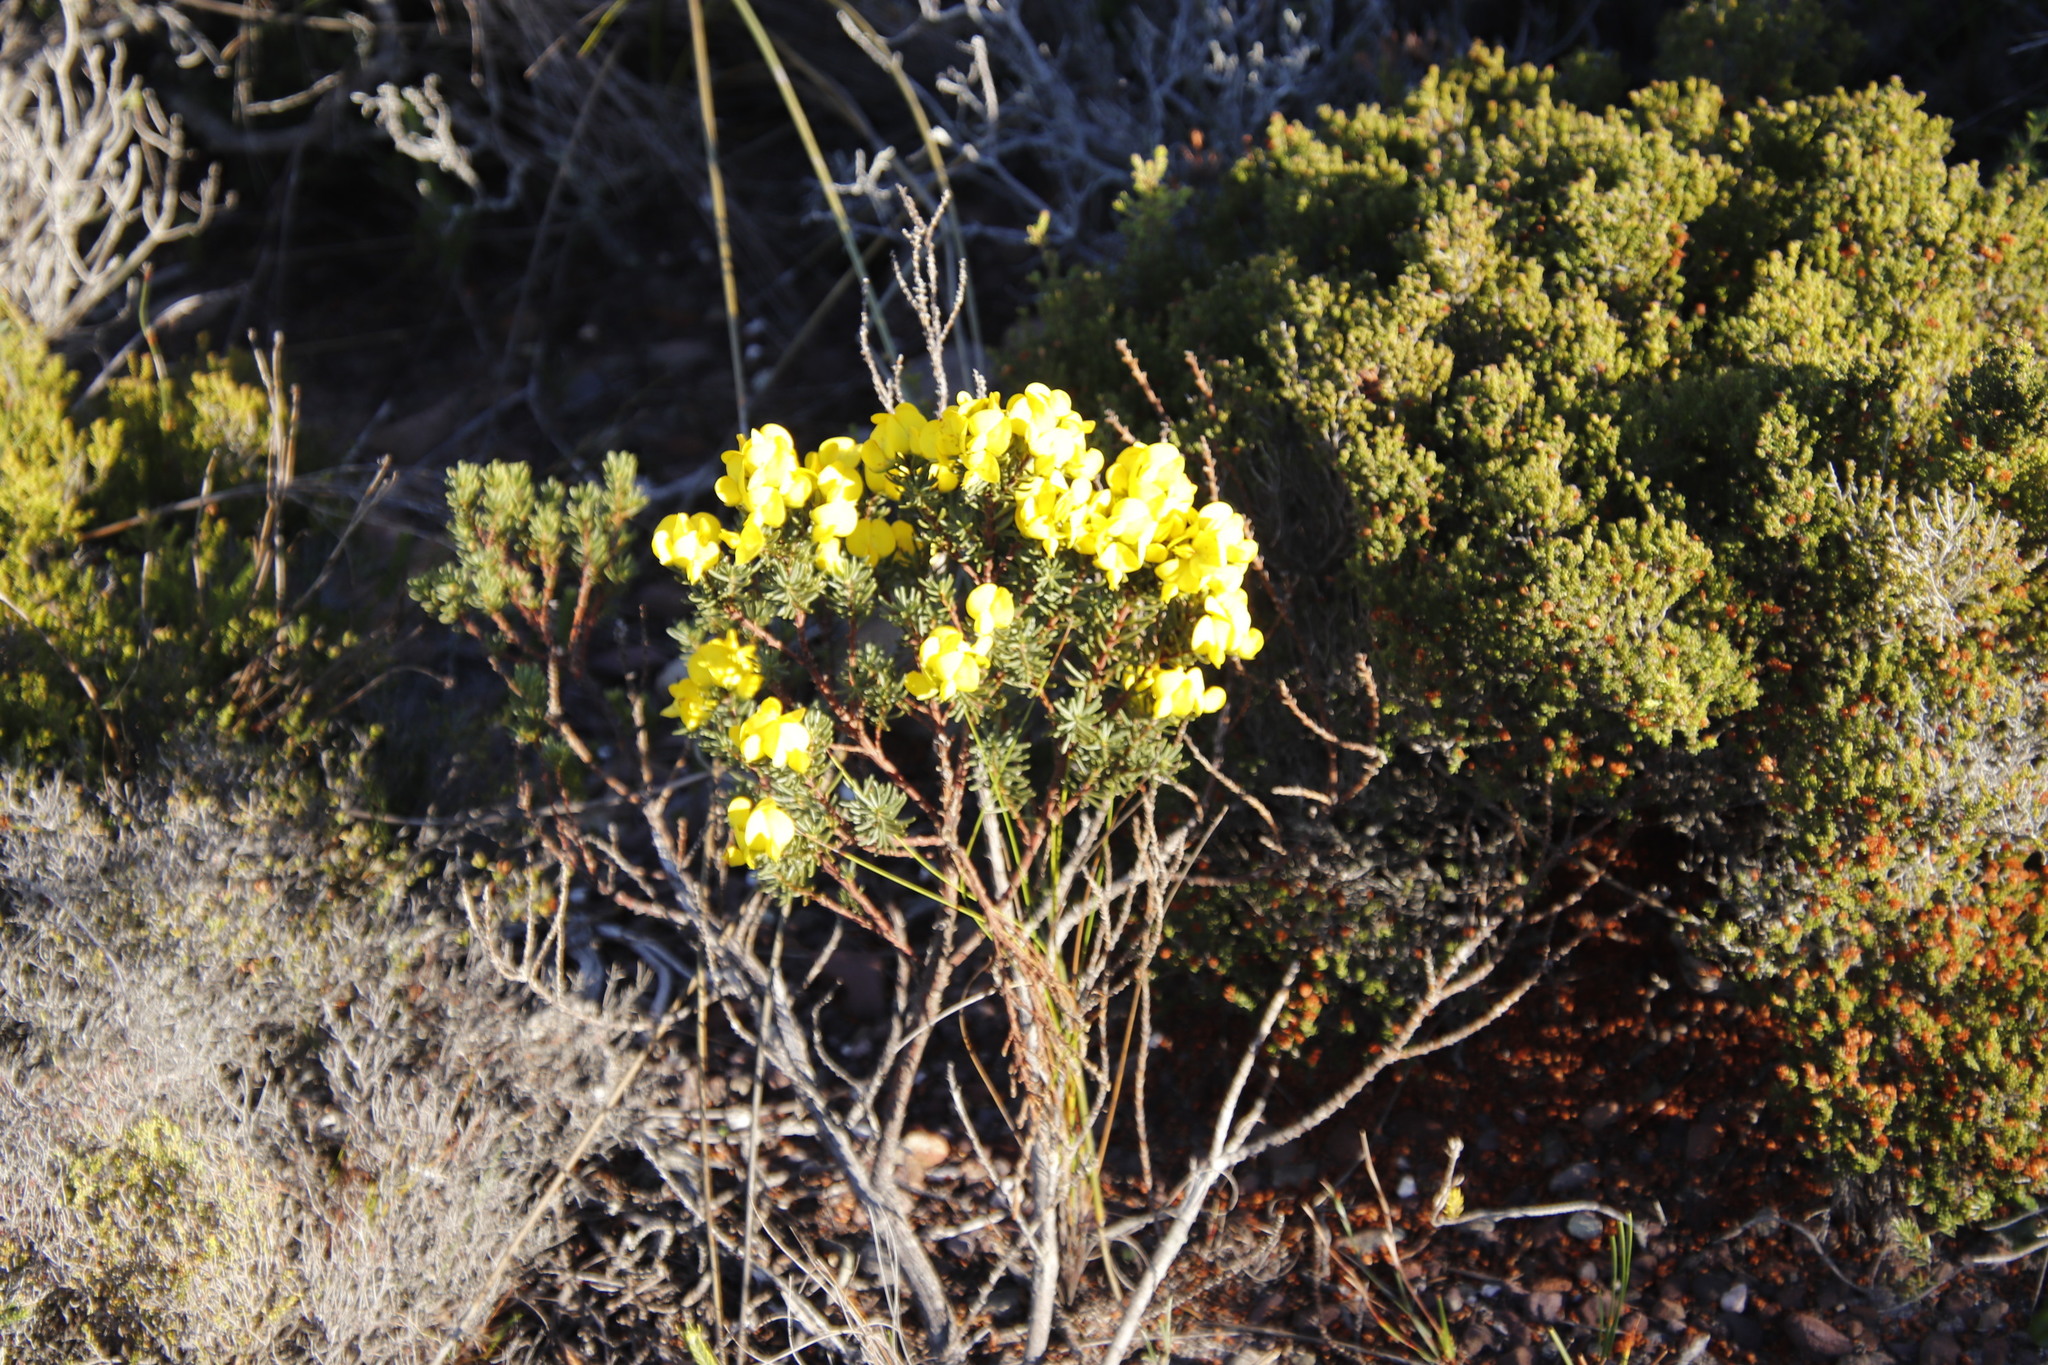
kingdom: Plantae
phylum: Tracheophyta
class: Magnoliopsida
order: Fabales
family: Fabaceae
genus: Cyclopia
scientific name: Cyclopia genistoides
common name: Honeybush tea
